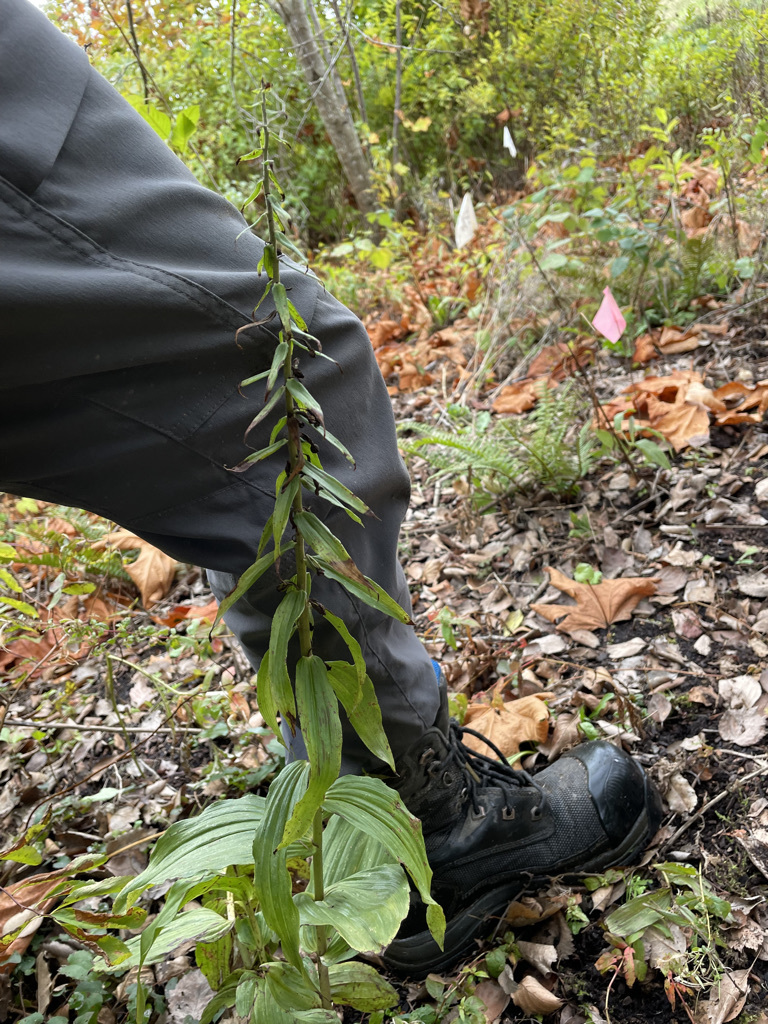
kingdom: Plantae
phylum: Tracheophyta
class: Liliopsida
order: Asparagales
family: Orchidaceae
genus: Epipactis
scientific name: Epipactis helleborine
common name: Broad-leaved helleborine
